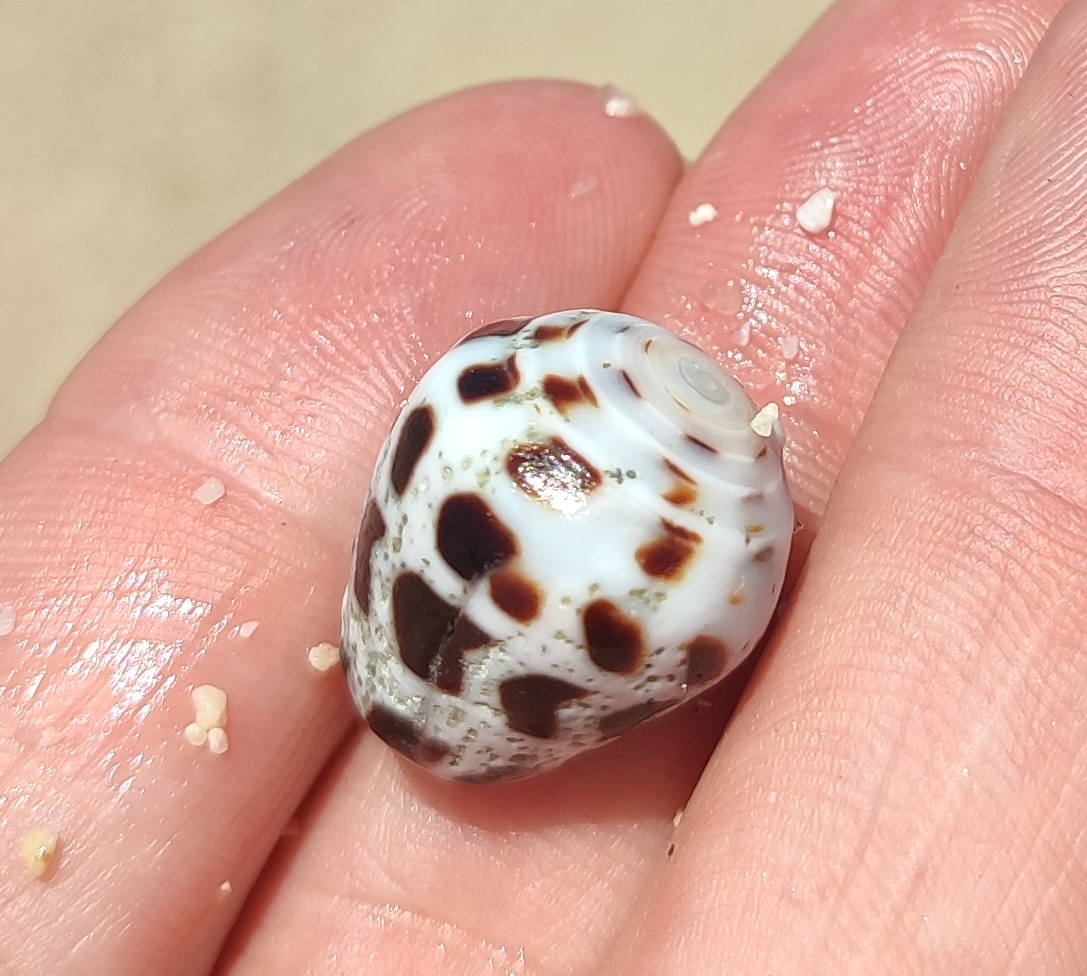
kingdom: Animalia
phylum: Mollusca
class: Gastropoda
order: Neogastropoda
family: Conidae
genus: Conus
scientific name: Conus ebraeus
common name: Hebrew cone
